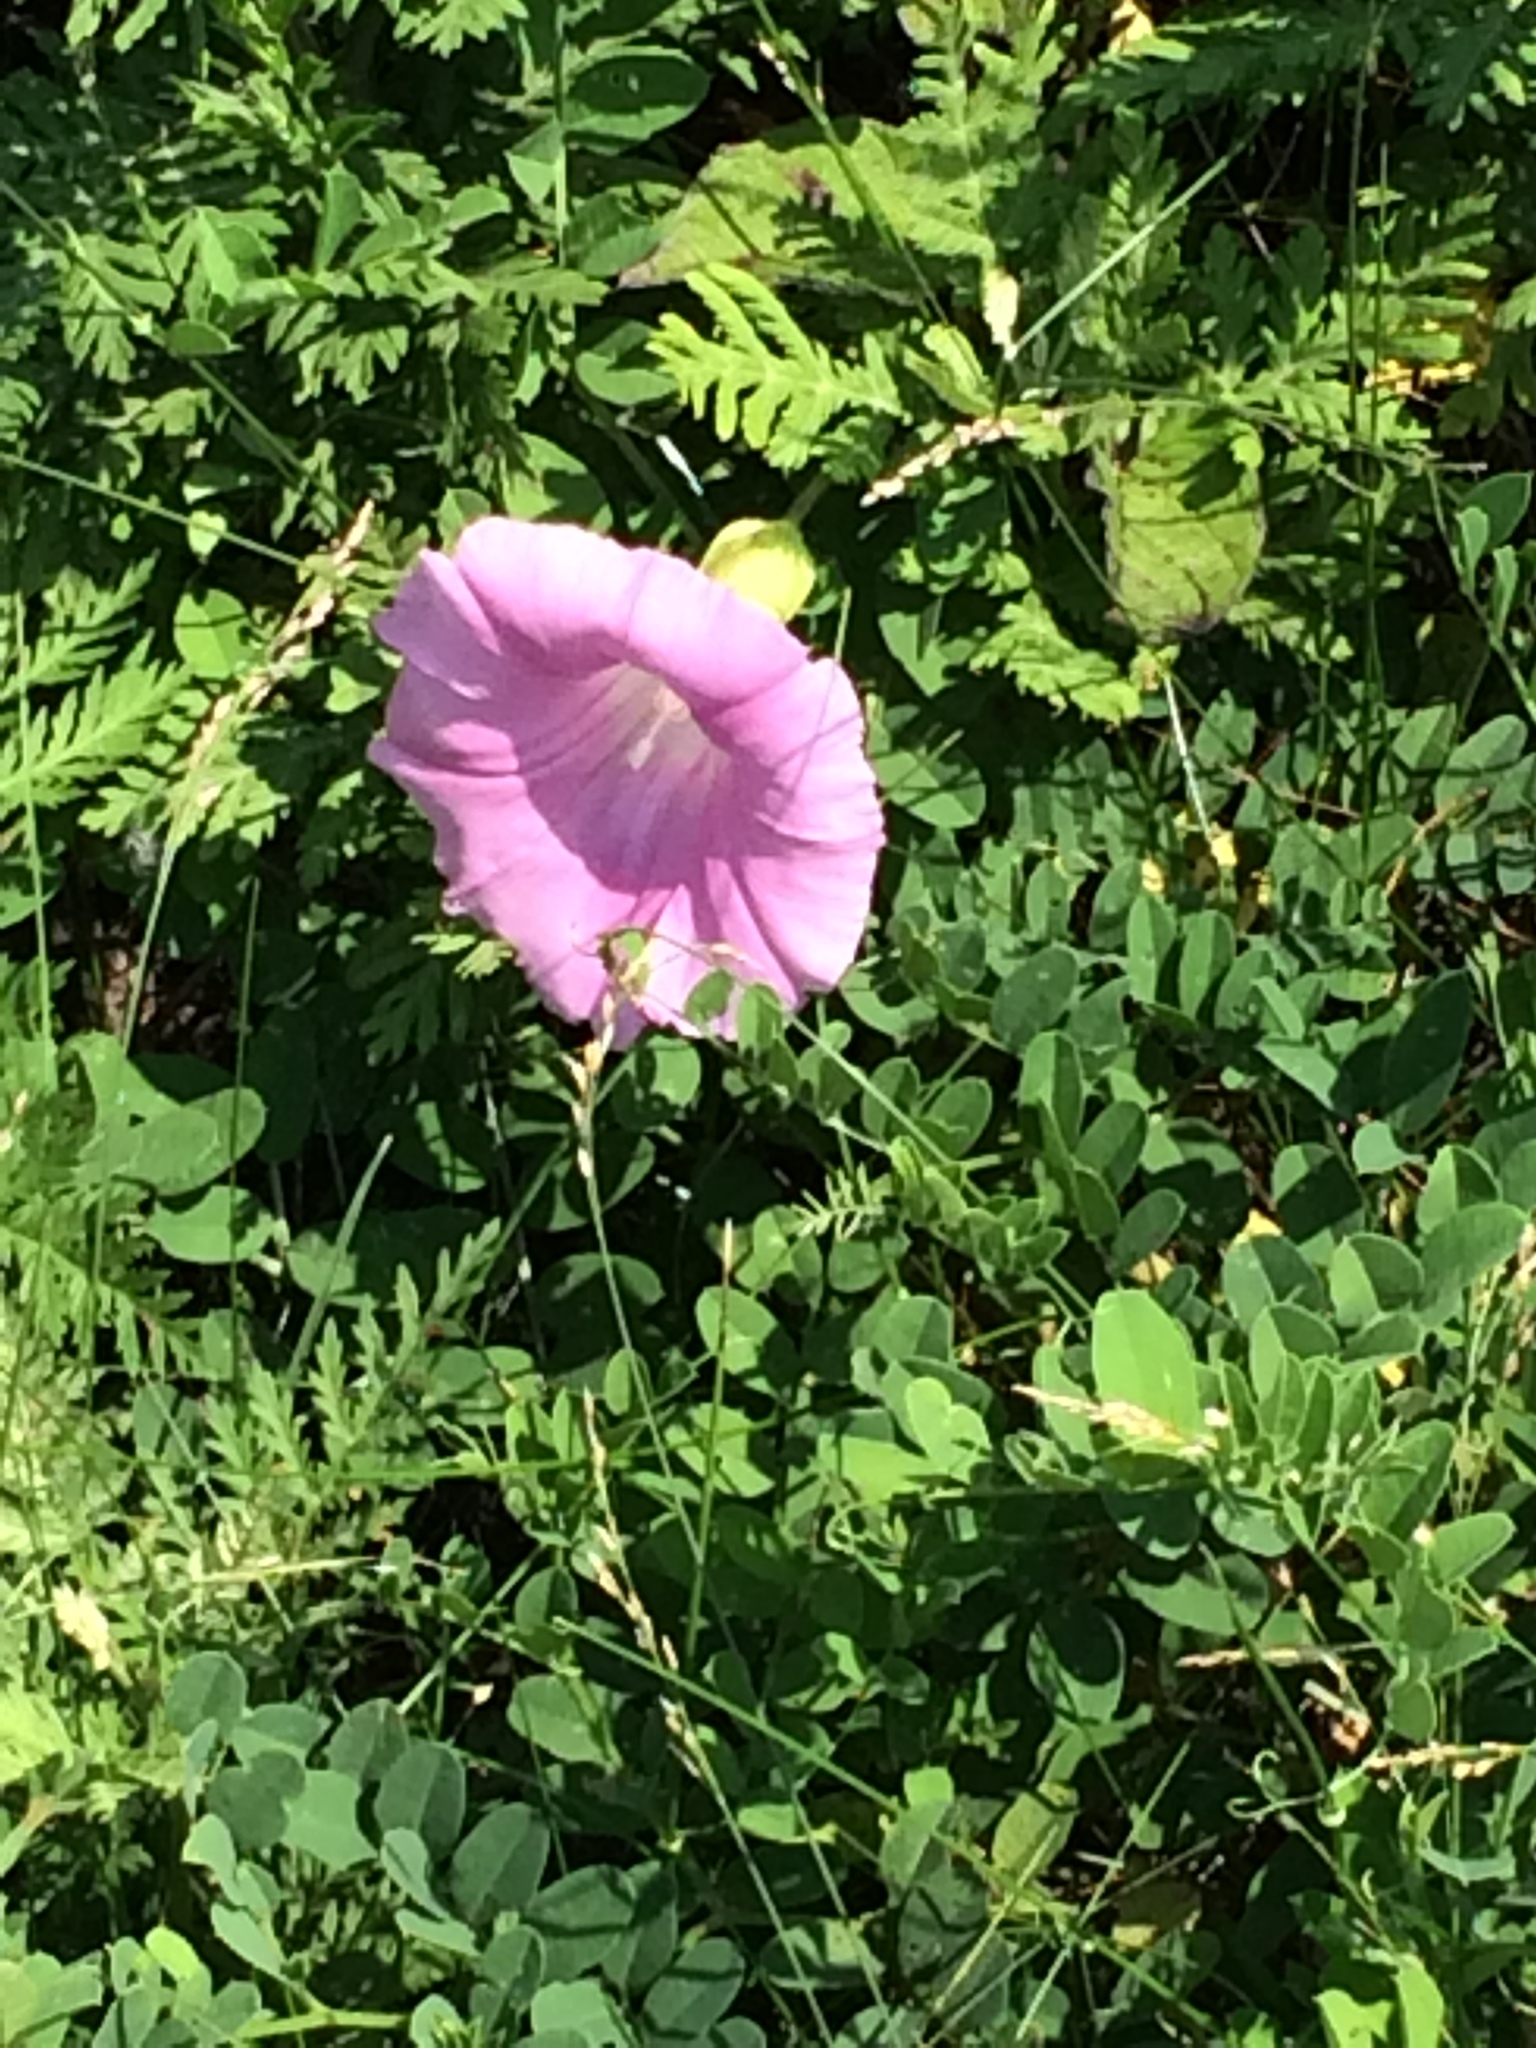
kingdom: Plantae
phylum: Tracheophyta
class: Magnoliopsida
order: Solanales
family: Convolvulaceae
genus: Calystegia
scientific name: Calystegia sepium
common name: Hedge bindweed
